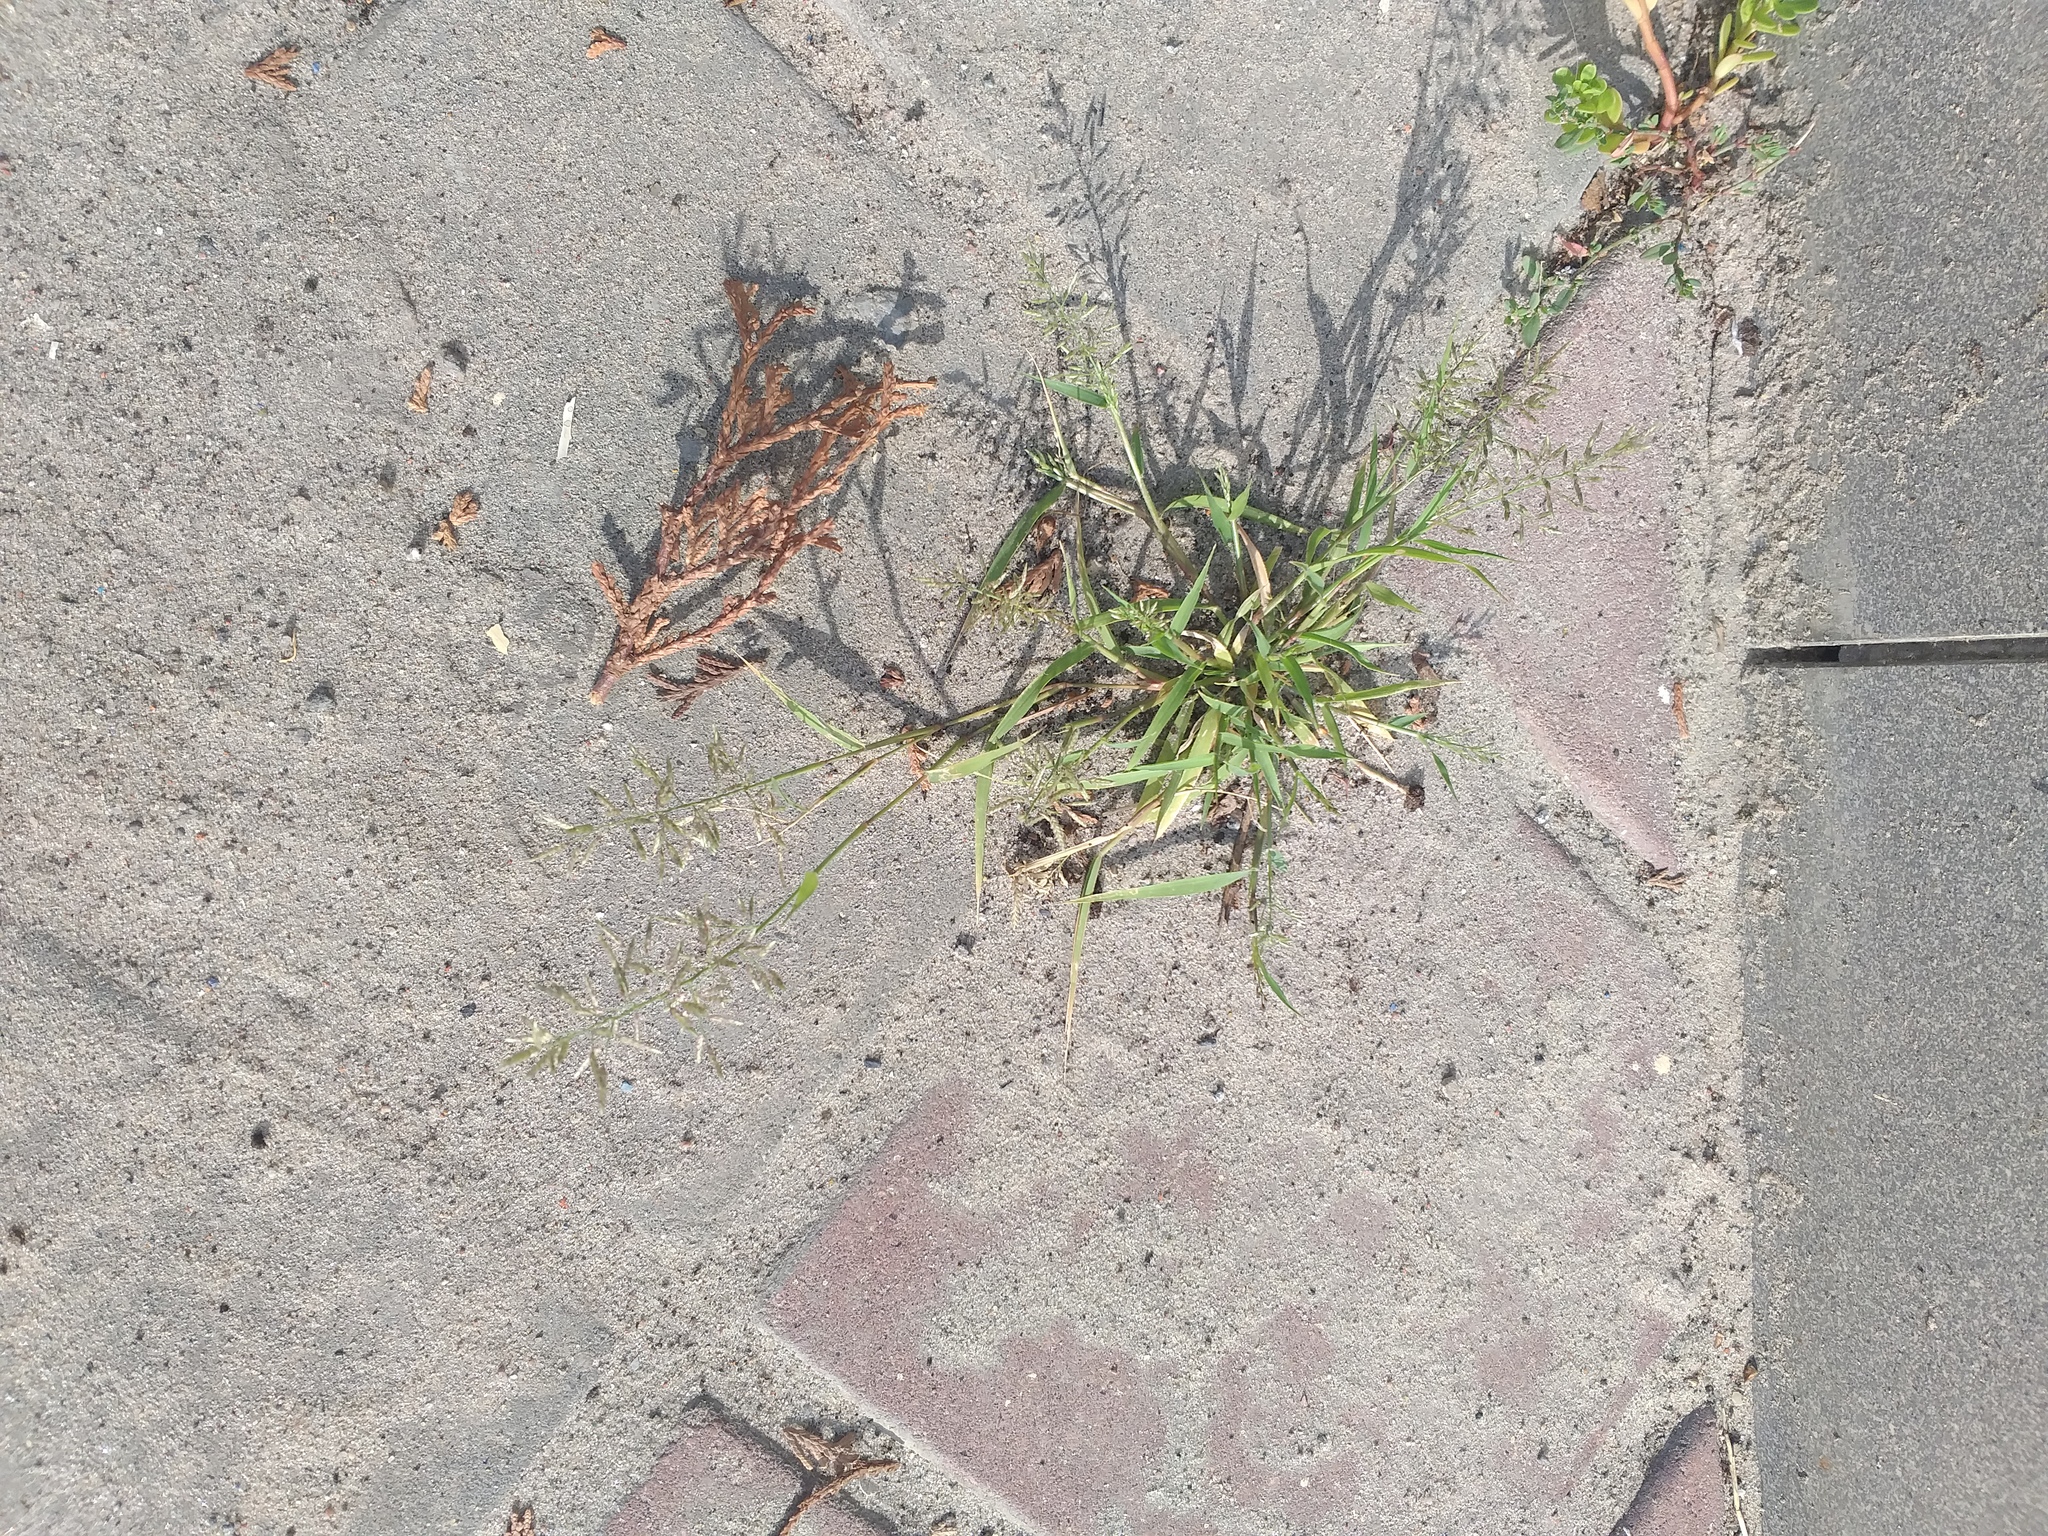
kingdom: Plantae
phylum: Tracheophyta
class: Liliopsida
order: Poales
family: Poaceae
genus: Eragrostis
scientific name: Eragrostis minor
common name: Small love-grass
